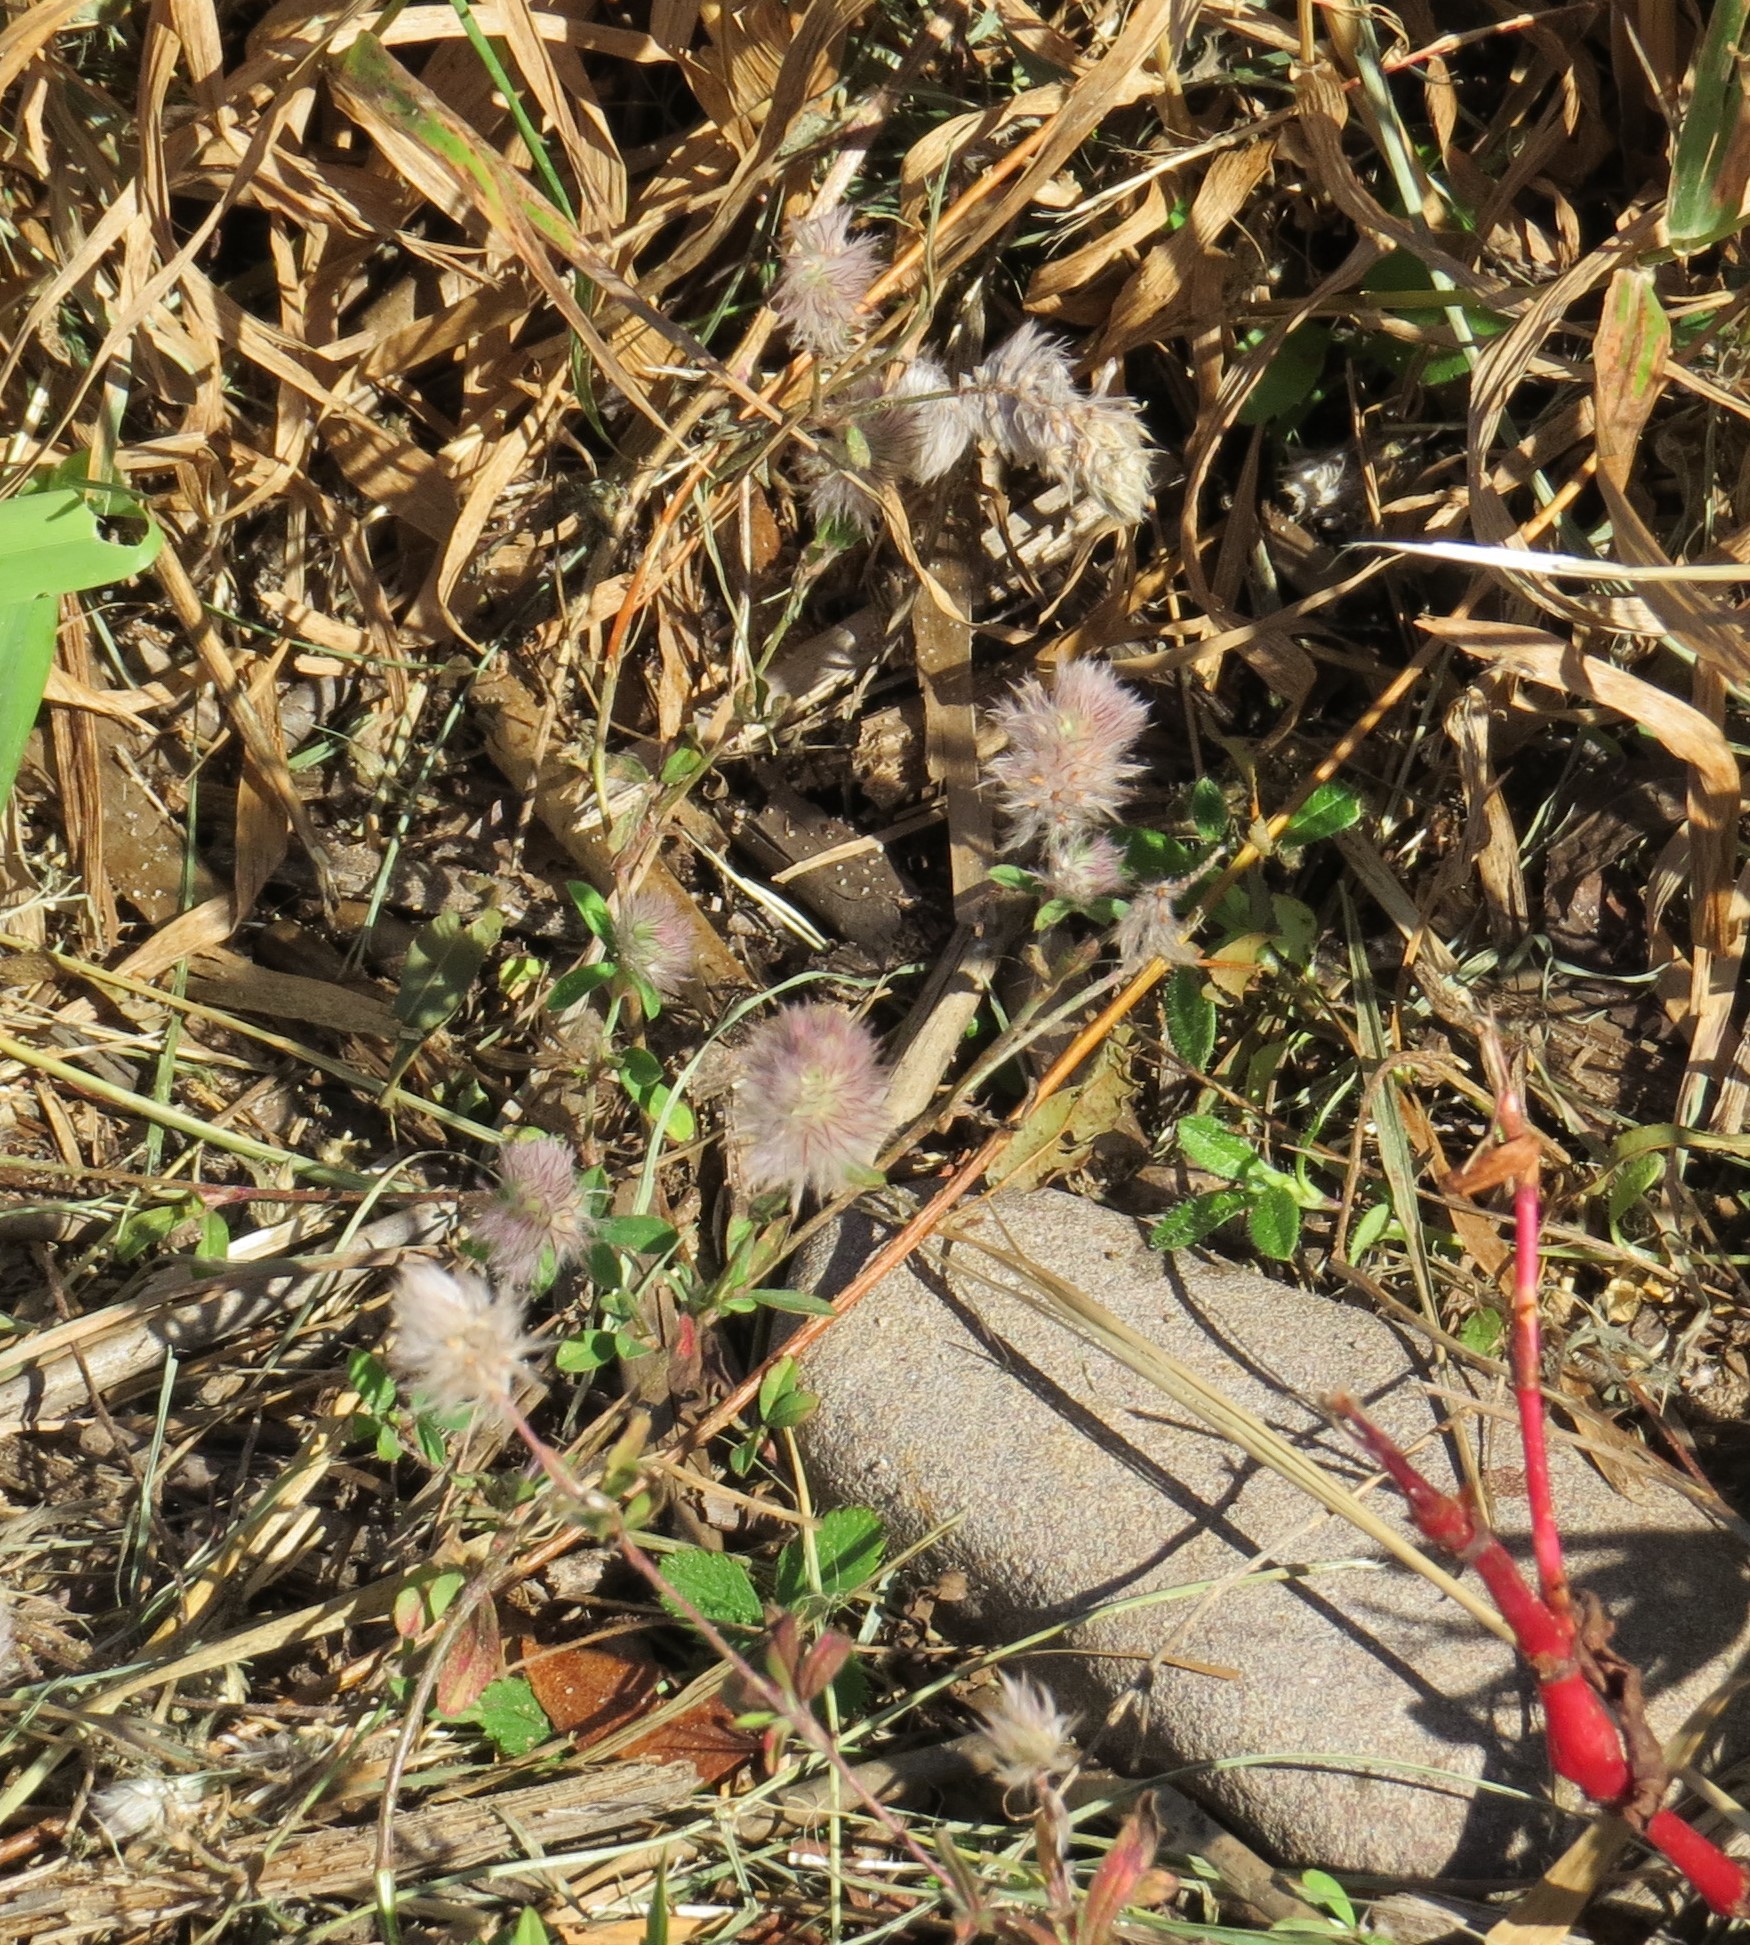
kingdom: Plantae
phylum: Tracheophyta
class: Magnoliopsida
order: Fabales
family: Fabaceae
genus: Trifolium
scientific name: Trifolium arvense
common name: Hare's-foot clover
